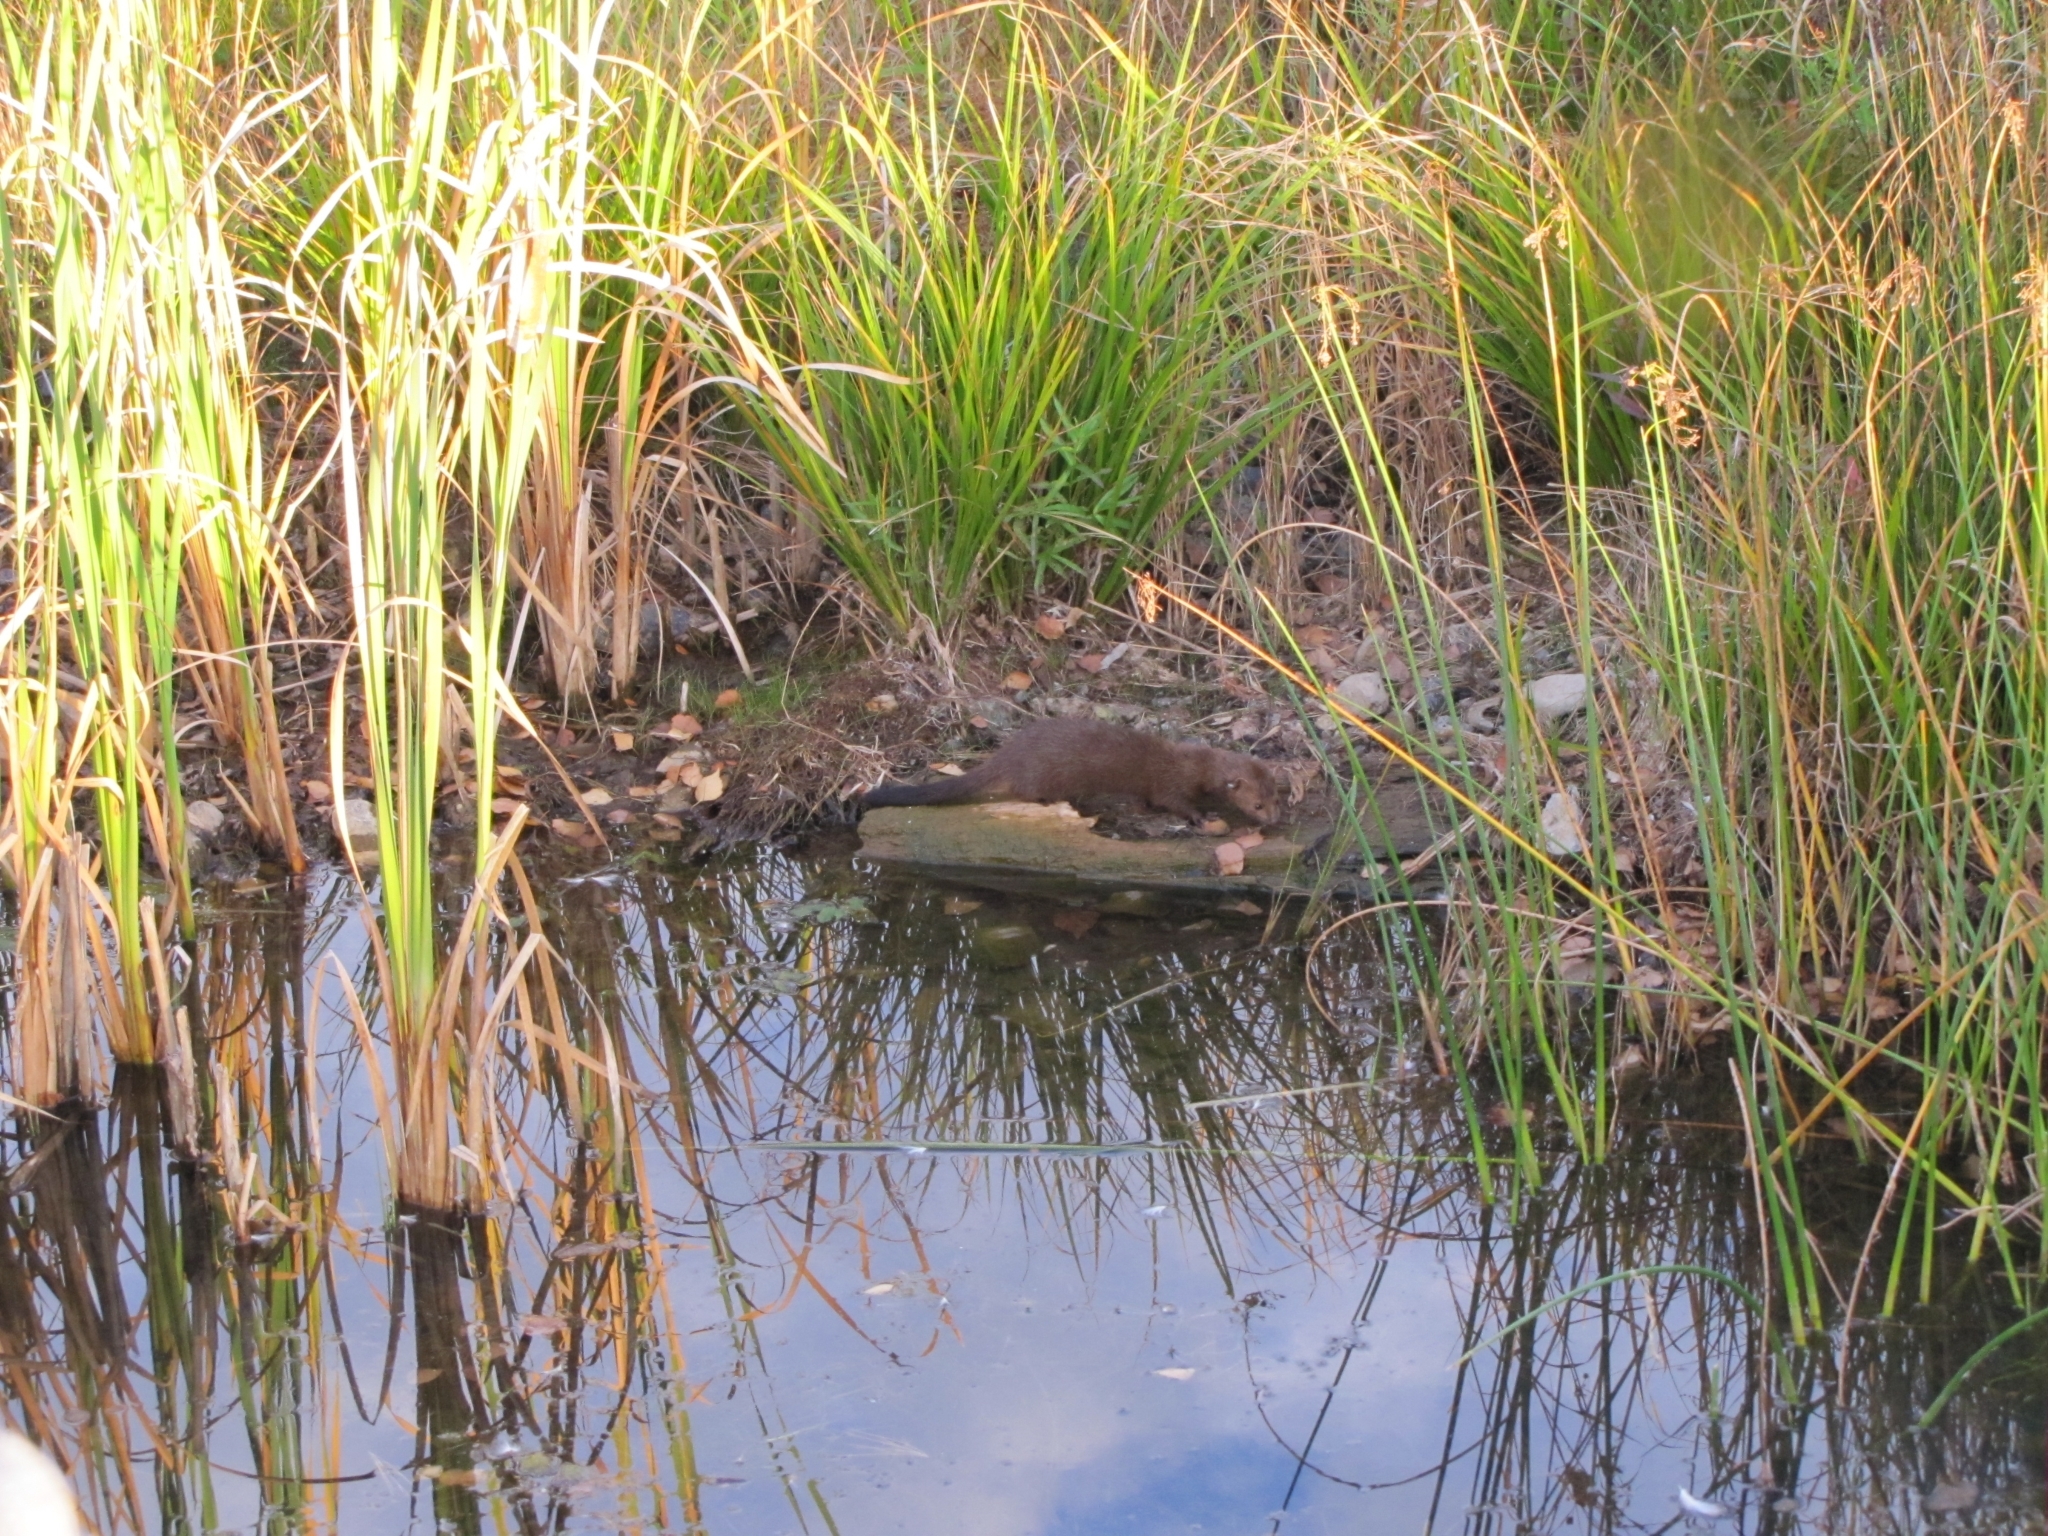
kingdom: Animalia
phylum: Chordata
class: Mammalia
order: Carnivora
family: Mustelidae
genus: Mustela
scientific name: Mustela
